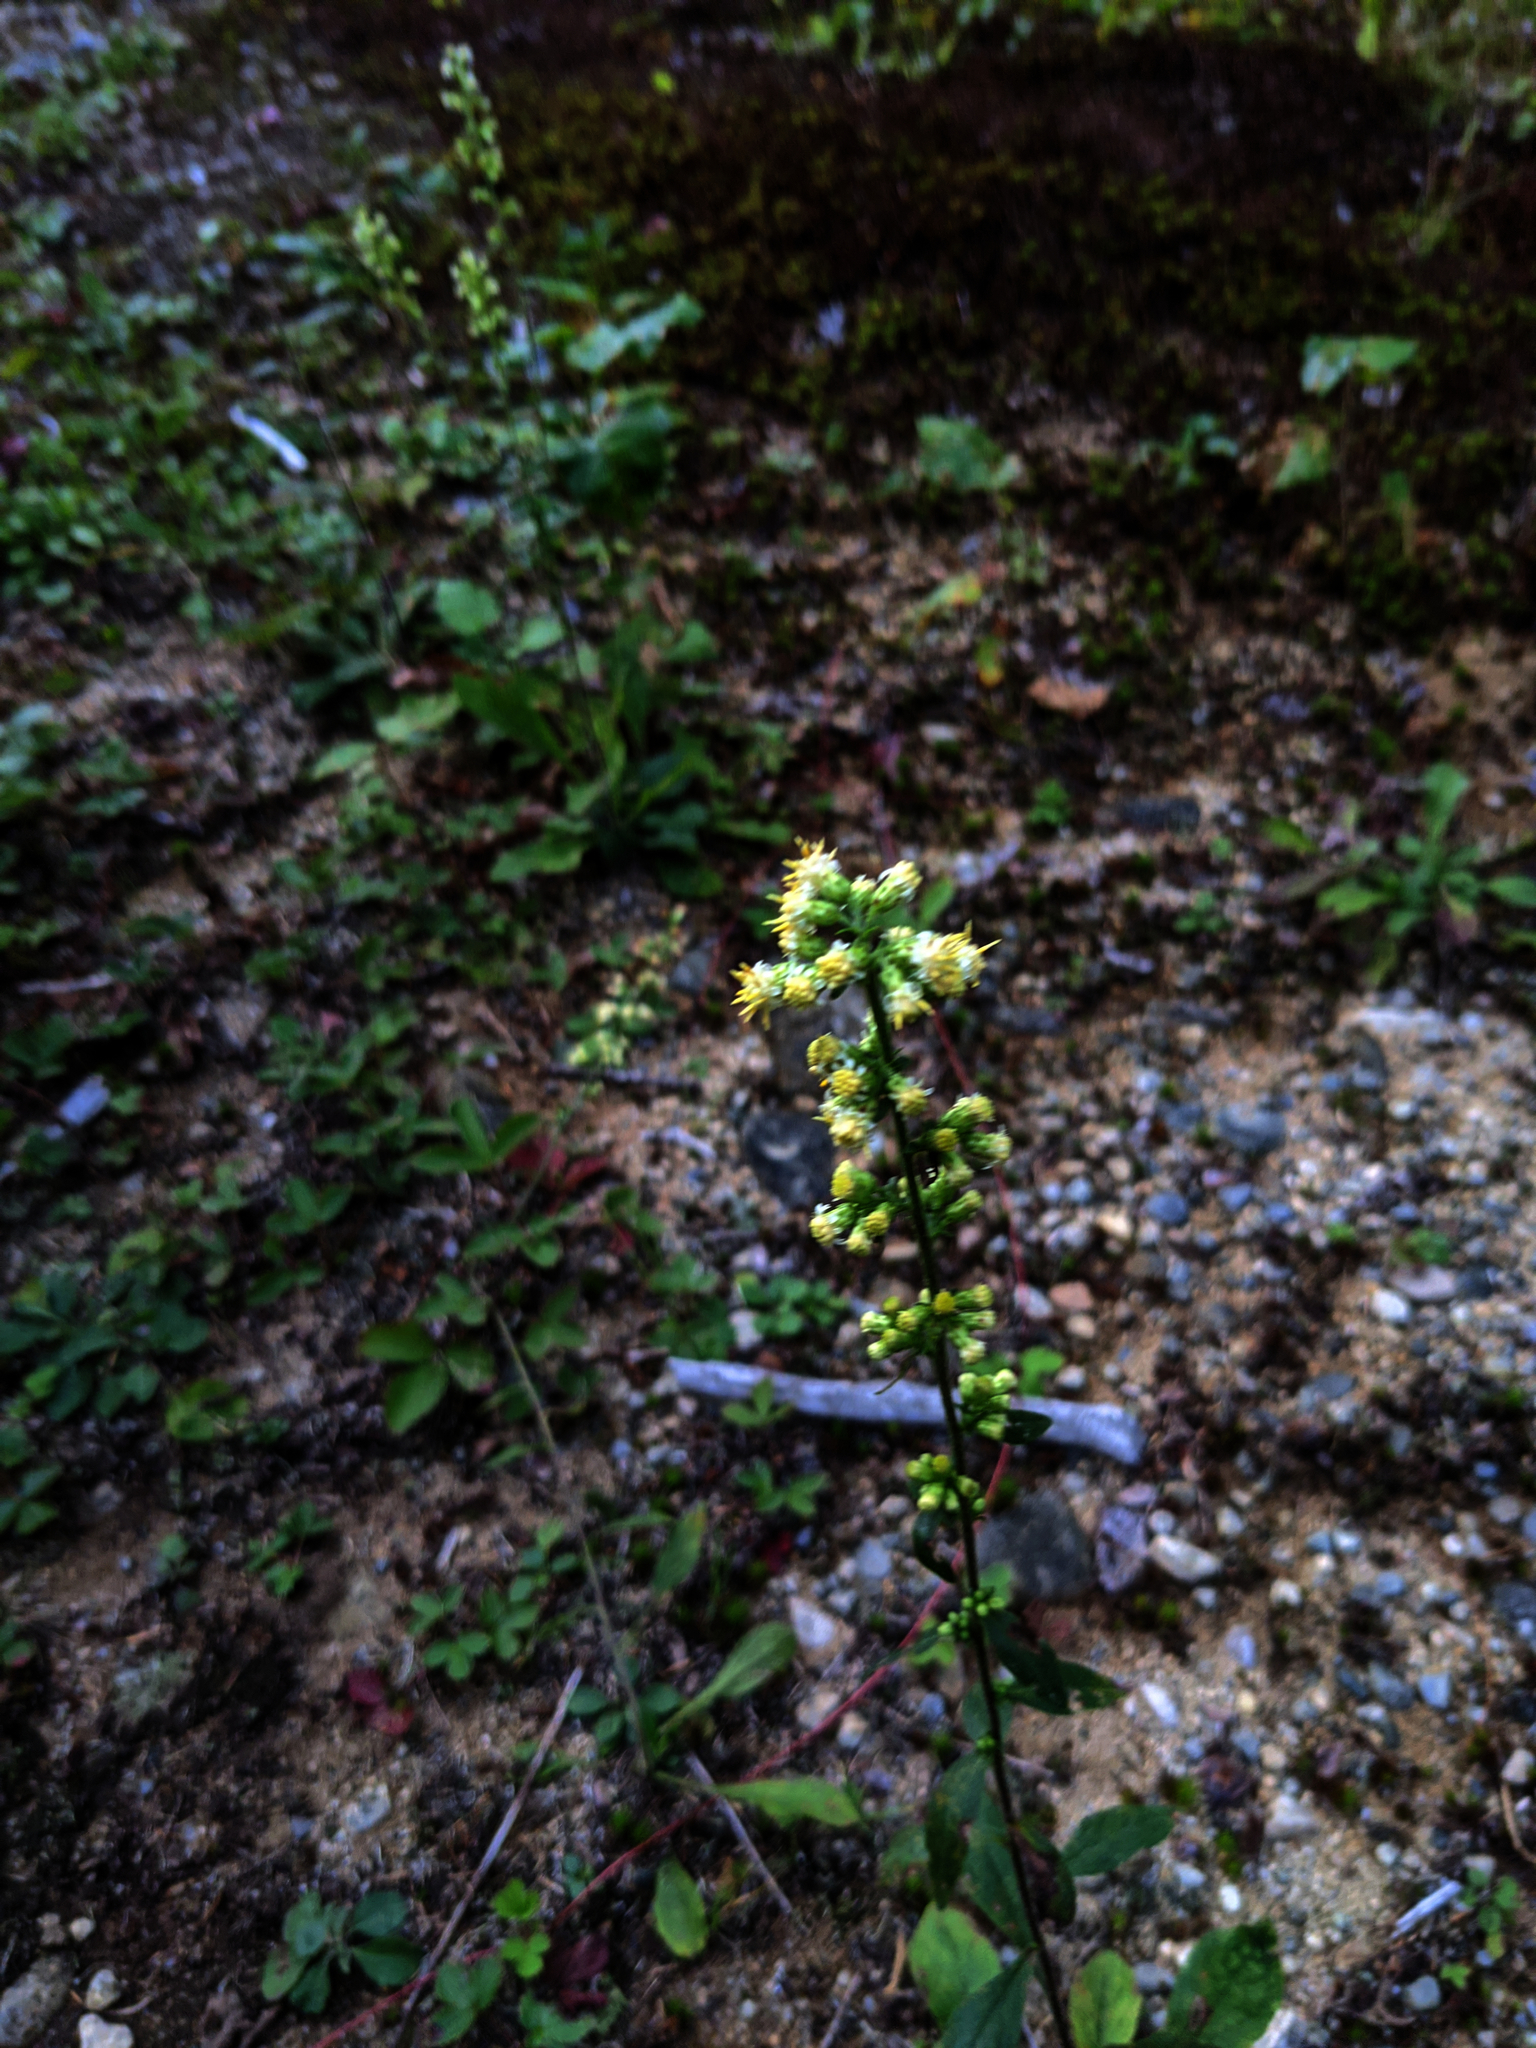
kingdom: Plantae
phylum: Tracheophyta
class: Magnoliopsida
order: Asterales
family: Asteraceae
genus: Solidago
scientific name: Solidago bicolor
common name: Silverrod
